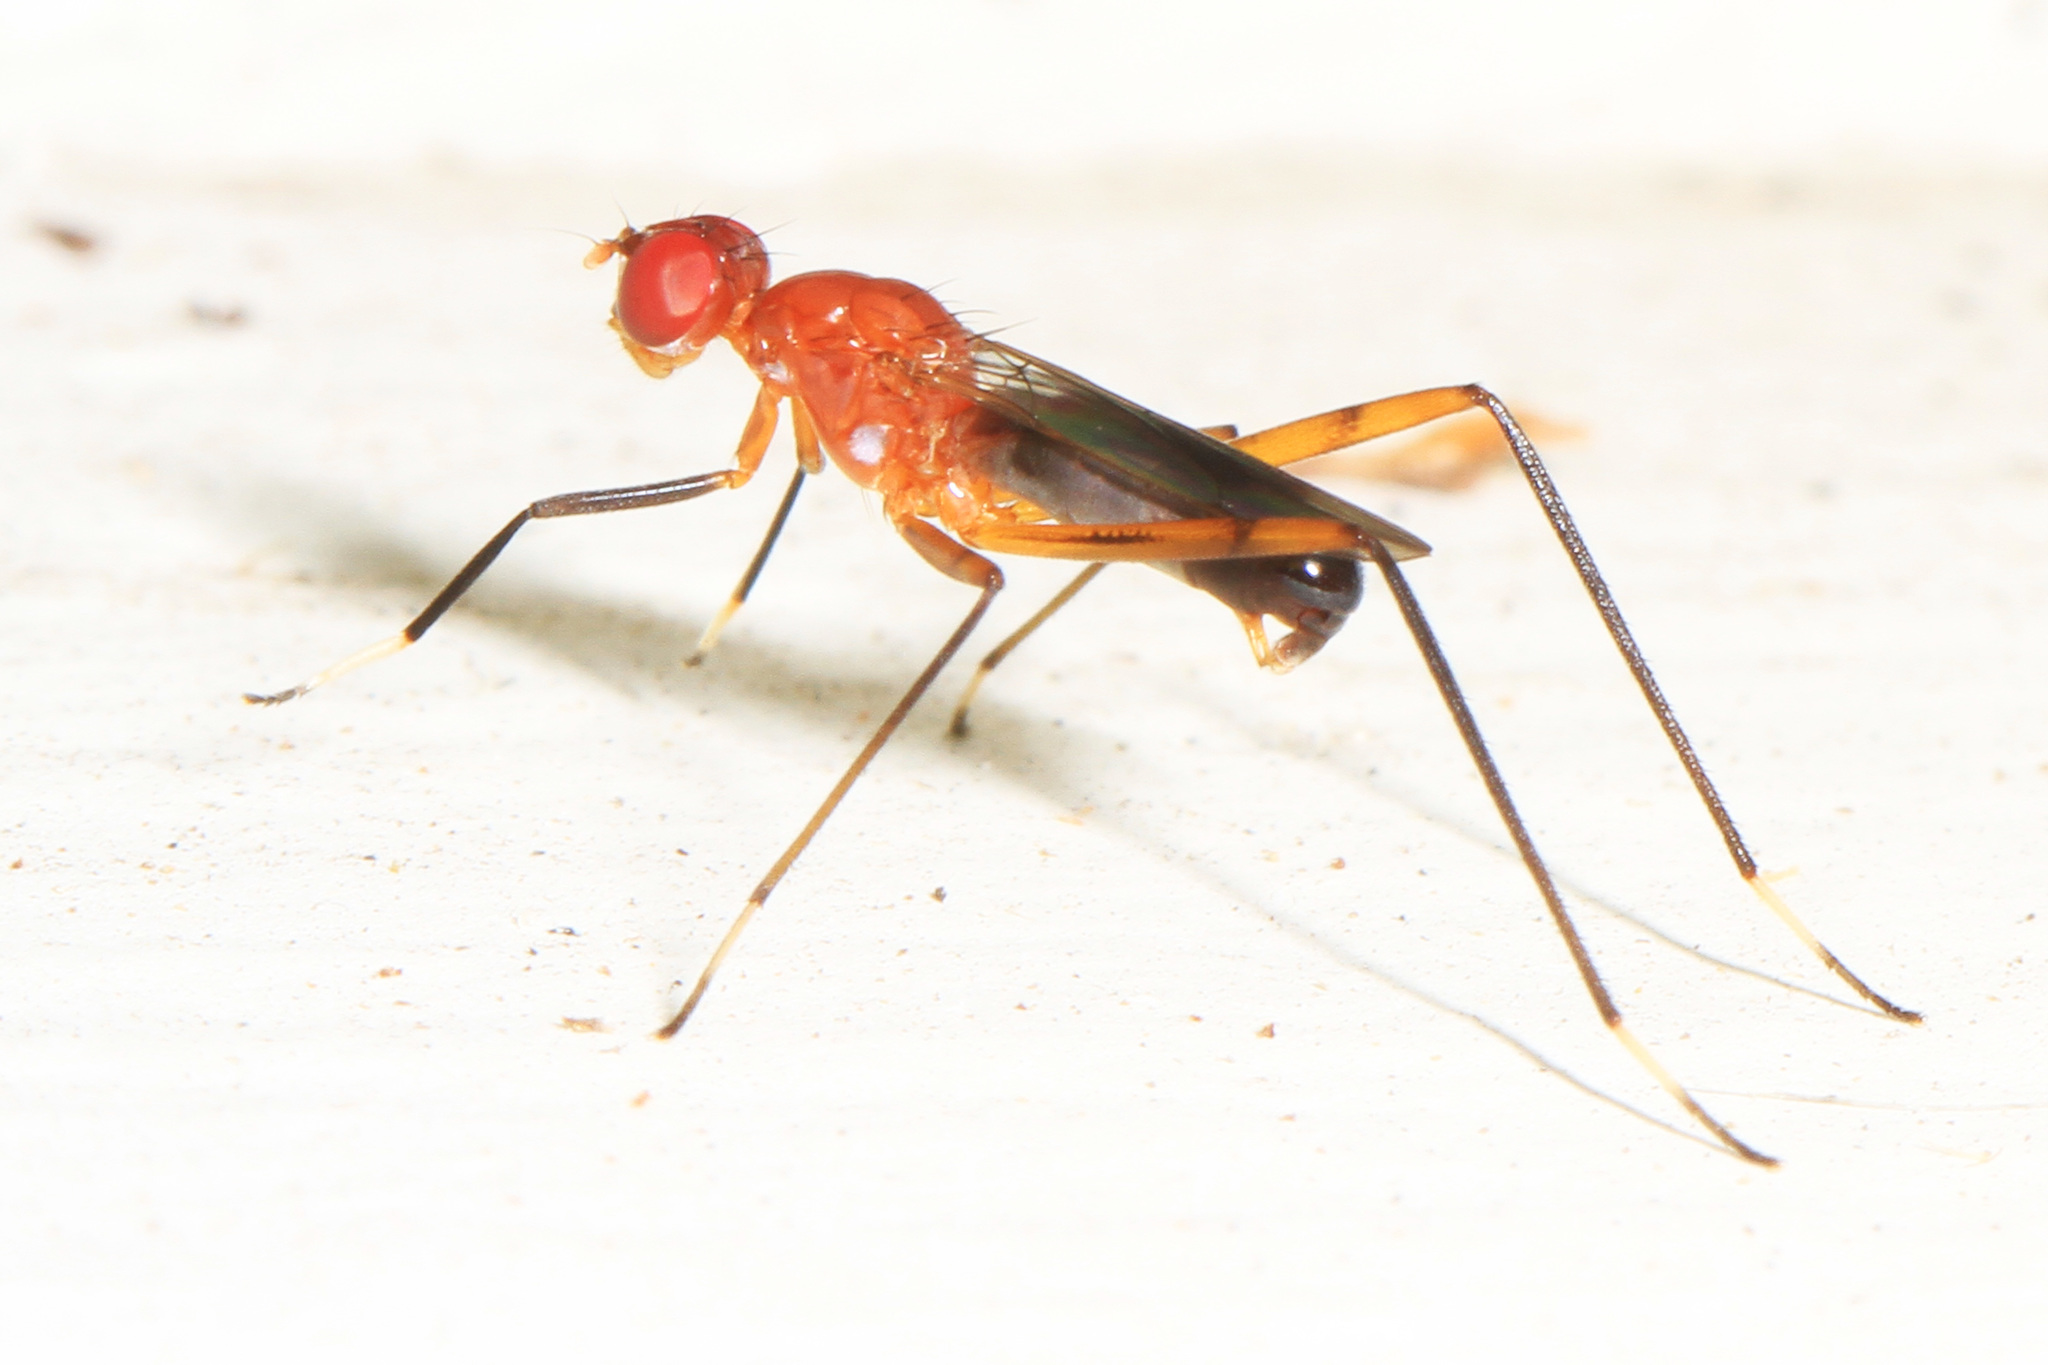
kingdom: Animalia
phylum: Arthropoda
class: Insecta
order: Diptera
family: Micropezidae
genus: Grallipeza
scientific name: Grallipeza nebulosa
